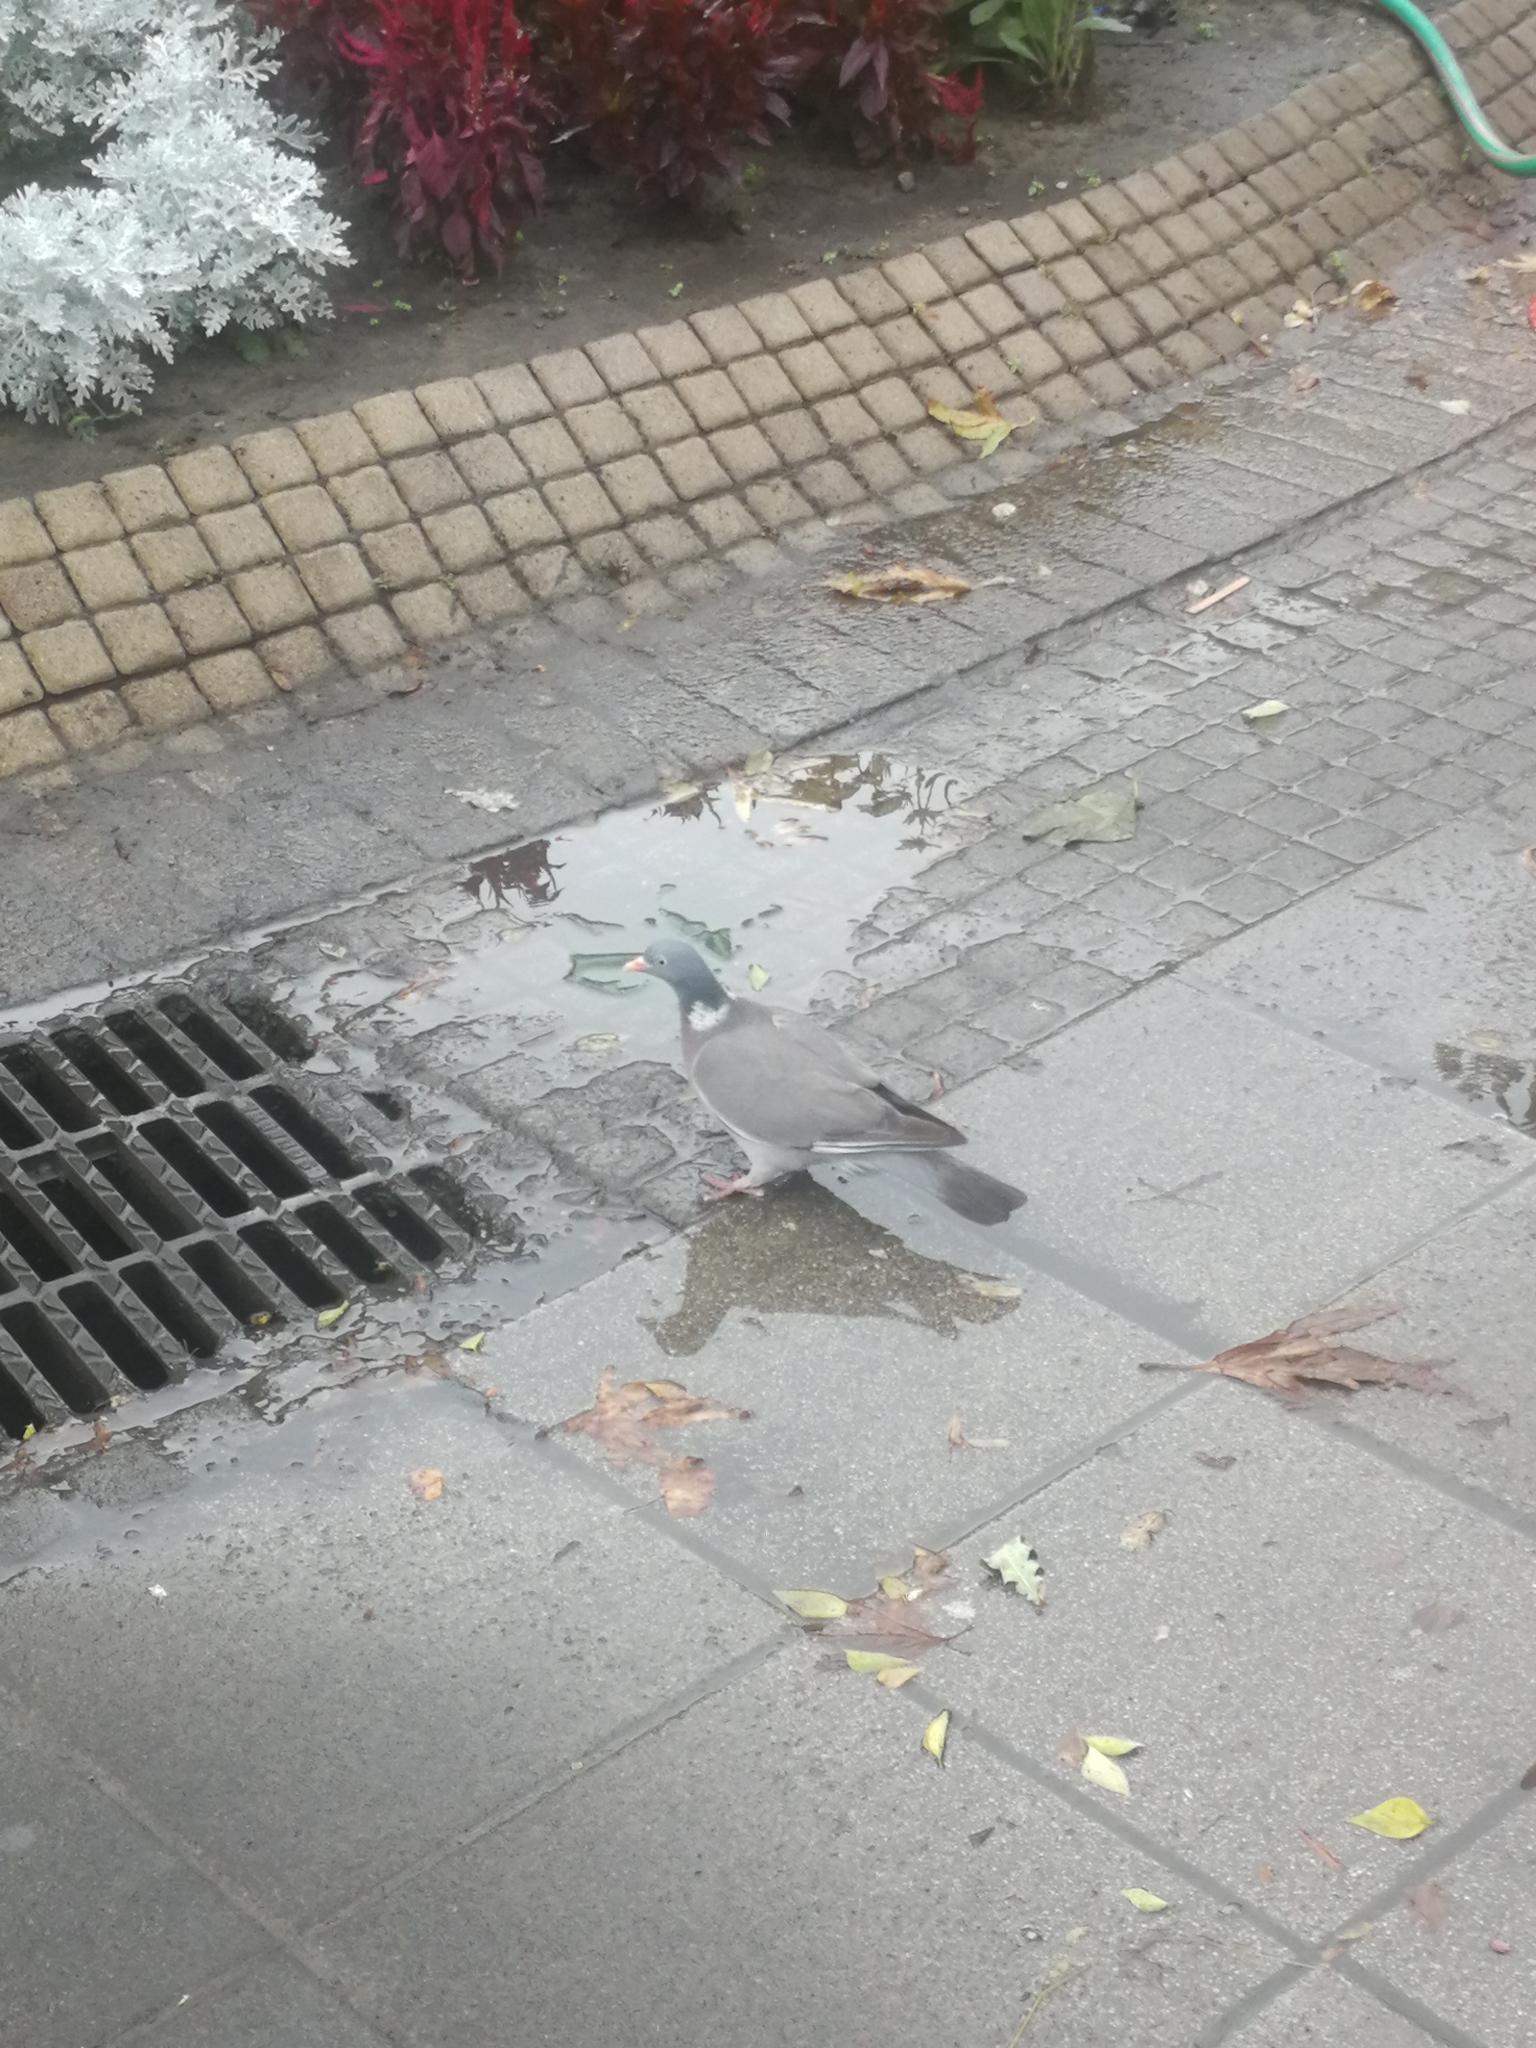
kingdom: Animalia
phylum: Chordata
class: Aves
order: Columbiformes
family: Columbidae
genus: Columba
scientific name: Columba palumbus
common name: Common wood pigeon
